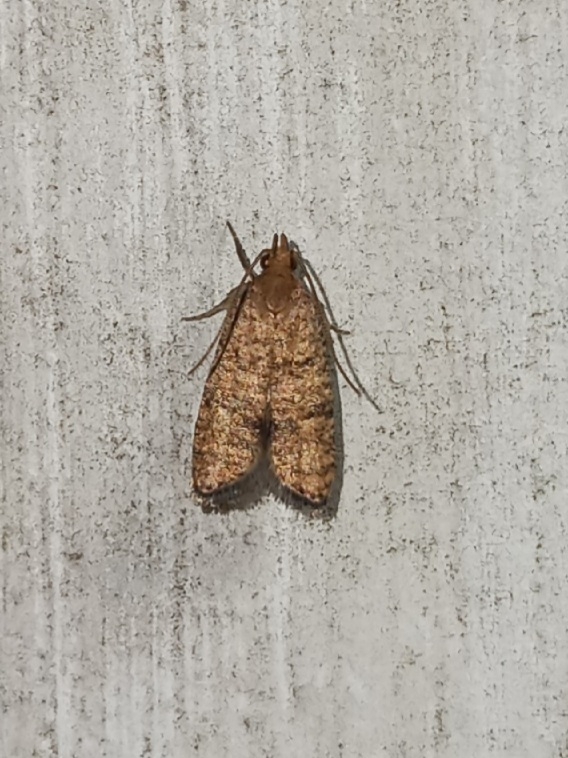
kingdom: Animalia
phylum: Arthropoda
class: Insecta
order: Lepidoptera
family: Depressariidae
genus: Psilocorsis
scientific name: Psilocorsis quercicella
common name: Oak leaftier moth
